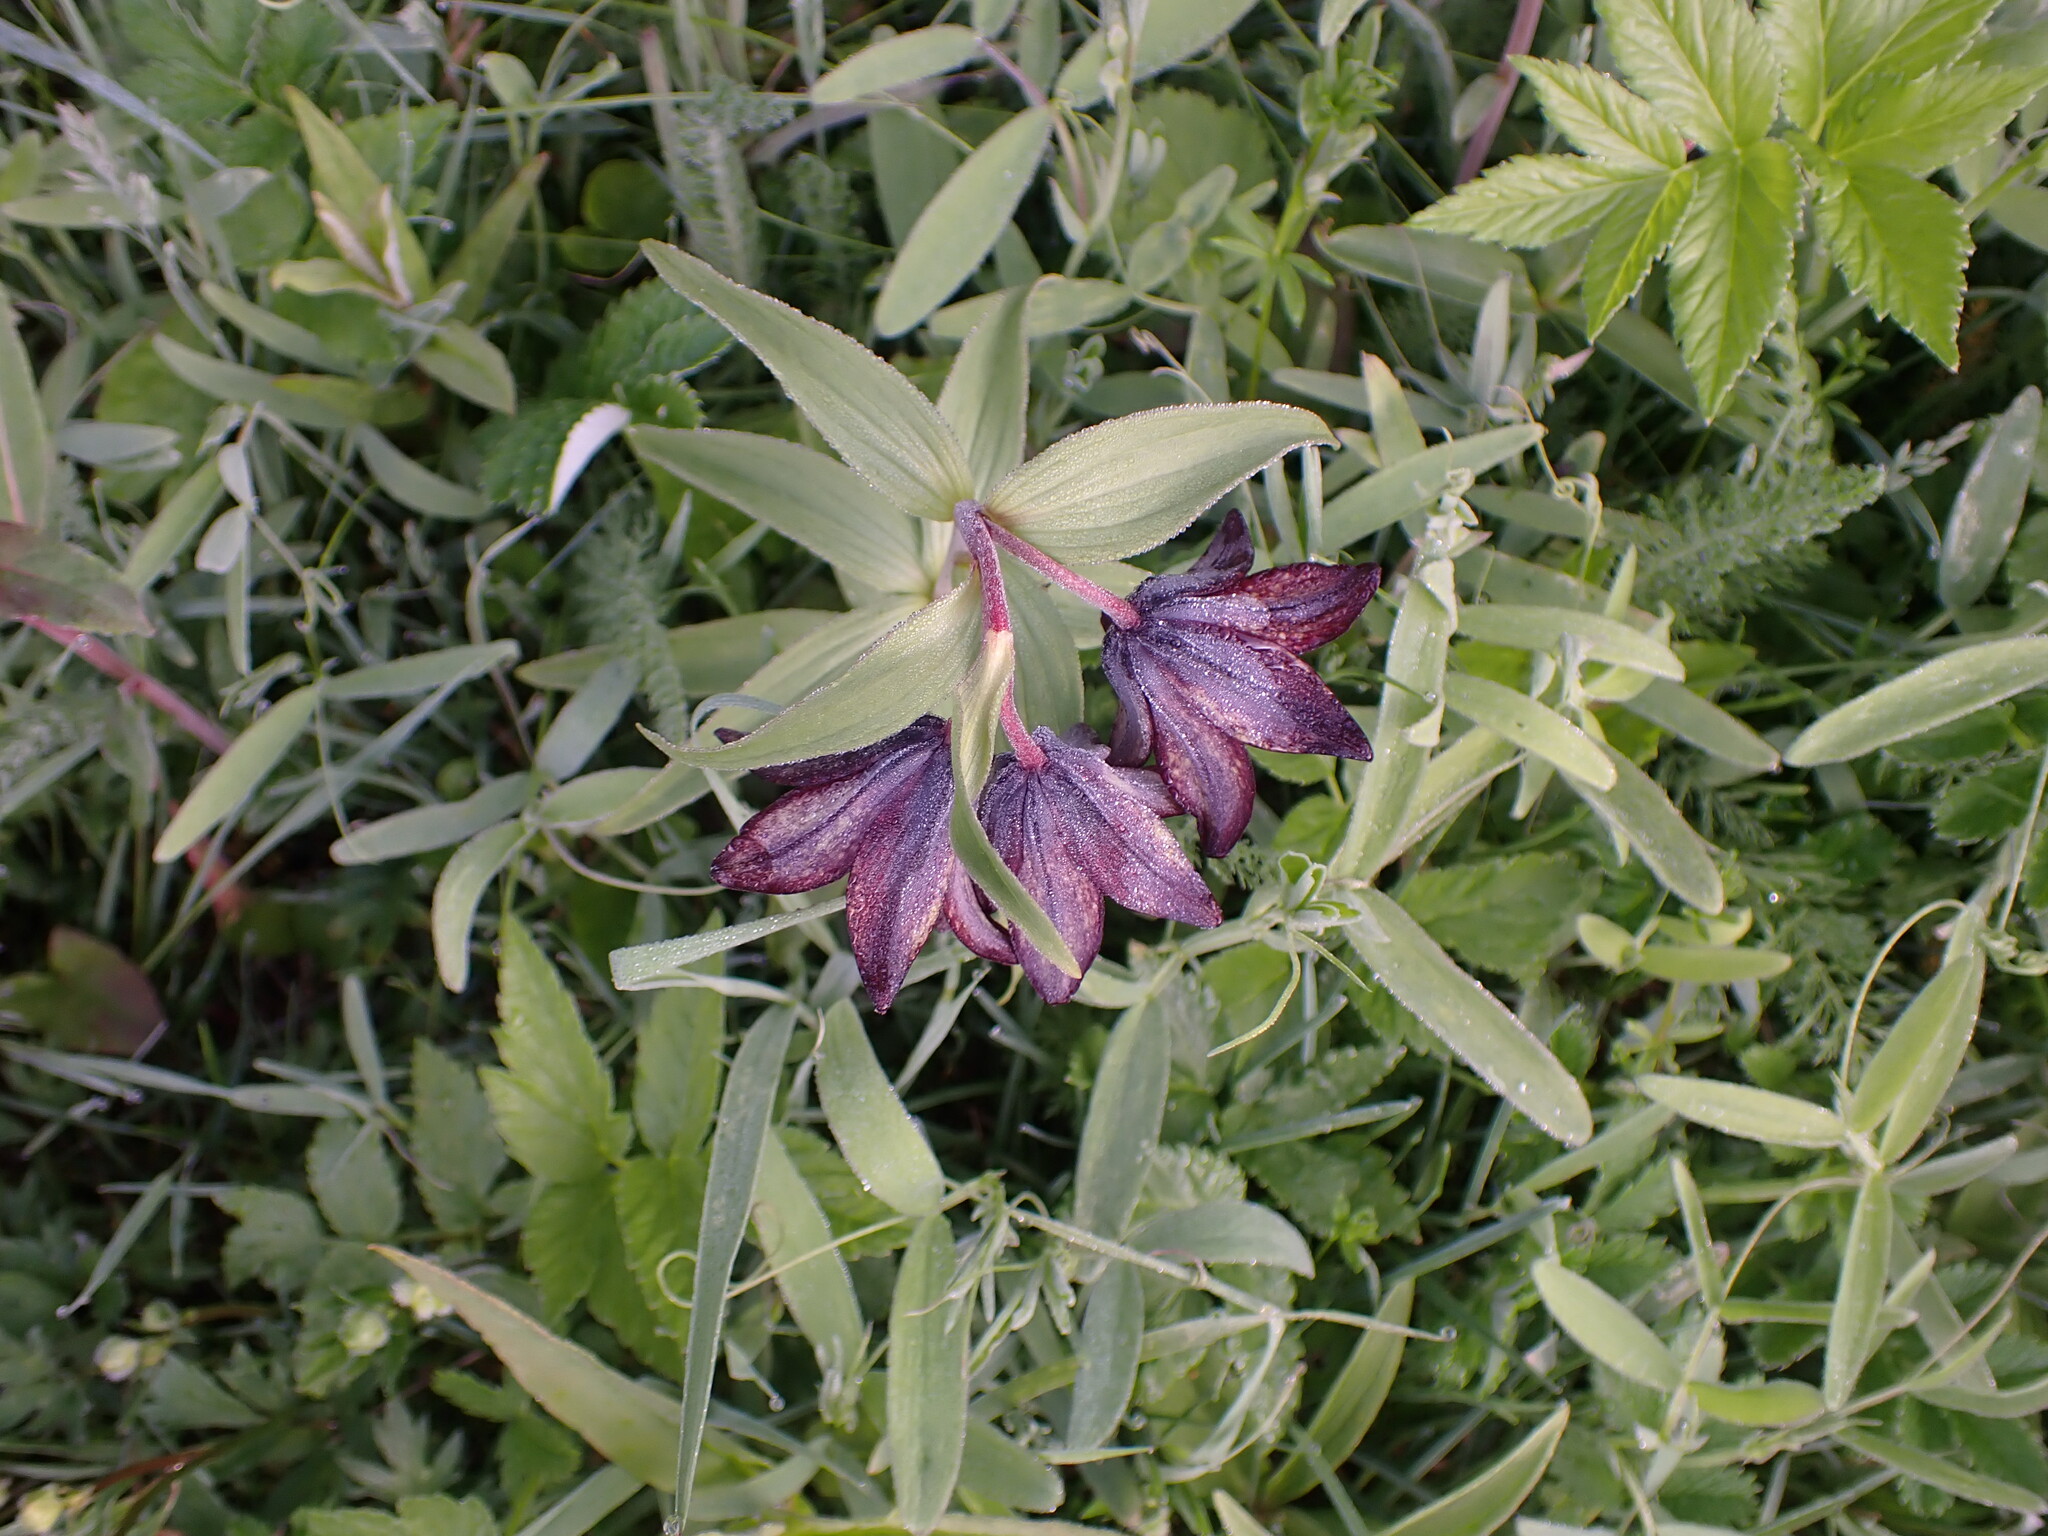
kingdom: Plantae
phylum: Tracheophyta
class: Liliopsida
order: Liliales
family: Liliaceae
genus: Fritillaria
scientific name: Fritillaria camschatcensis
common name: Kamchatka fritillary
